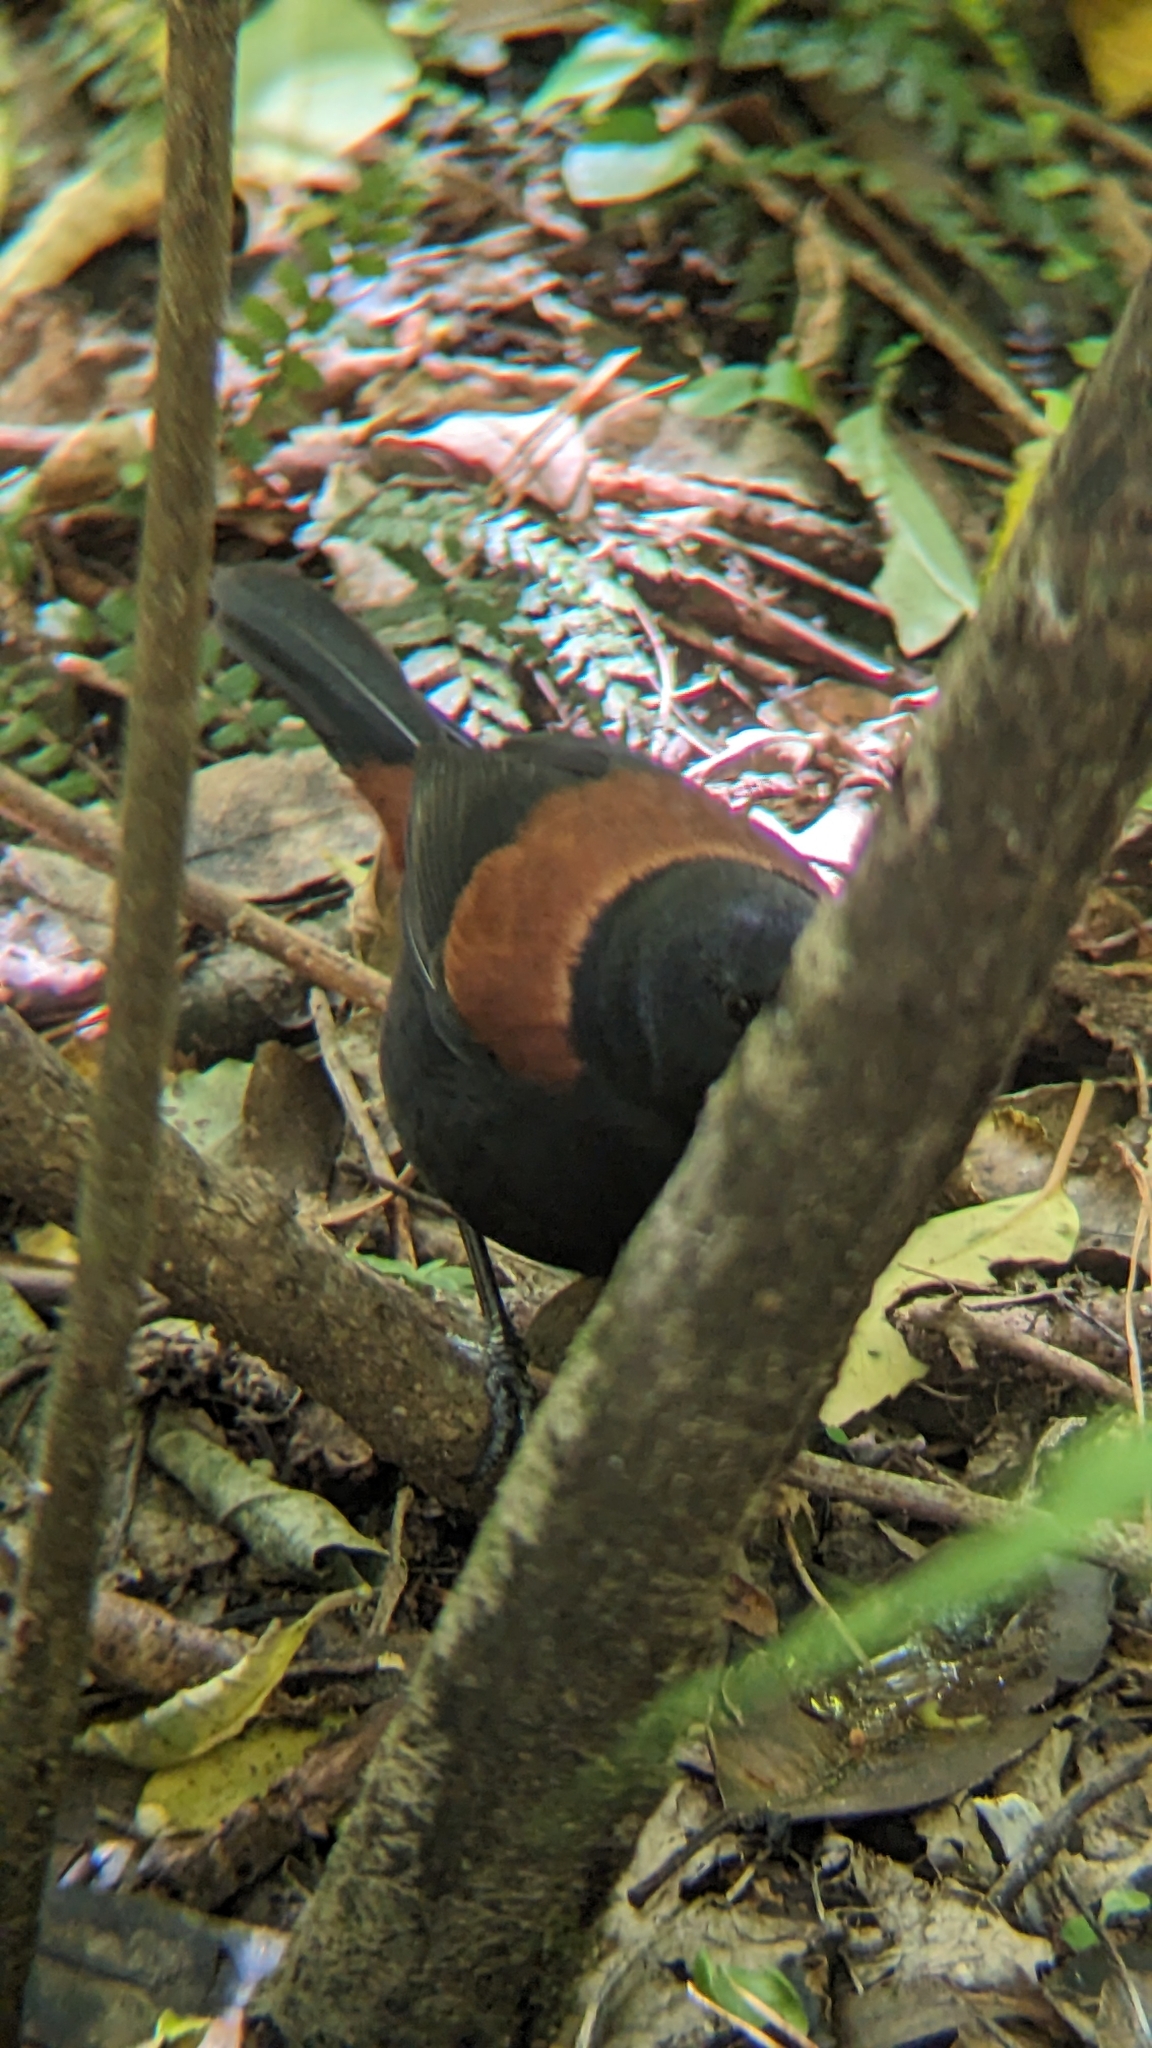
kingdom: Animalia
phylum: Chordata
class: Aves
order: Passeriformes
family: Callaeatidae
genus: Philesturnus
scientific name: Philesturnus carunculatus
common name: South island saddleback
